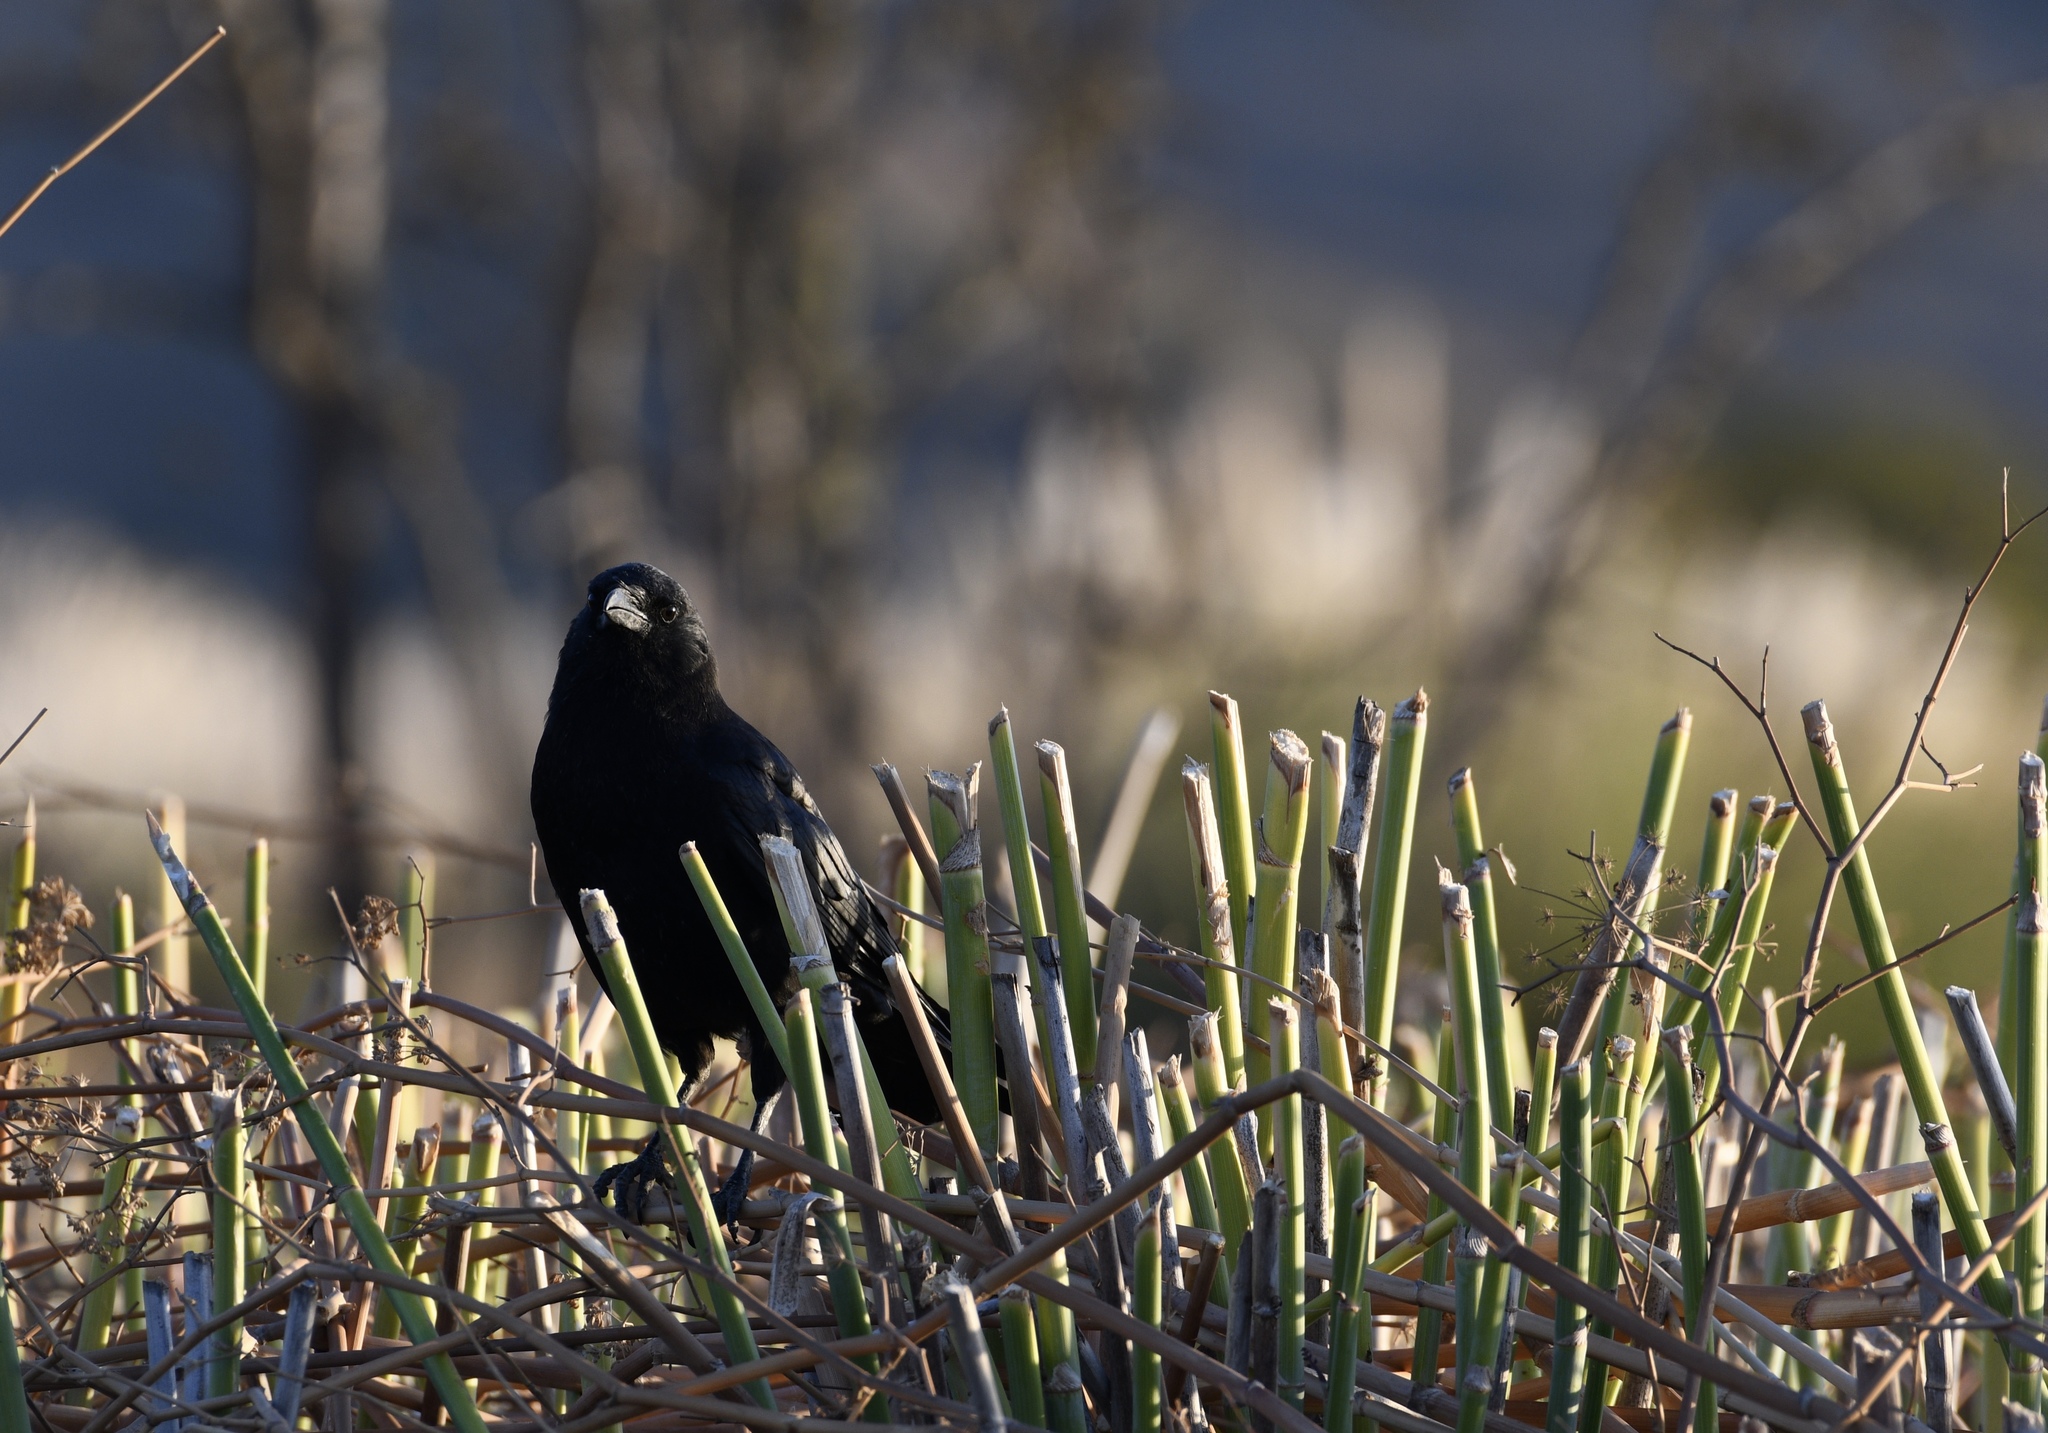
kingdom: Animalia
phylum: Chordata
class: Aves
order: Passeriformes
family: Corvidae
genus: Corvus
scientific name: Corvus brachyrhynchos
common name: American crow
